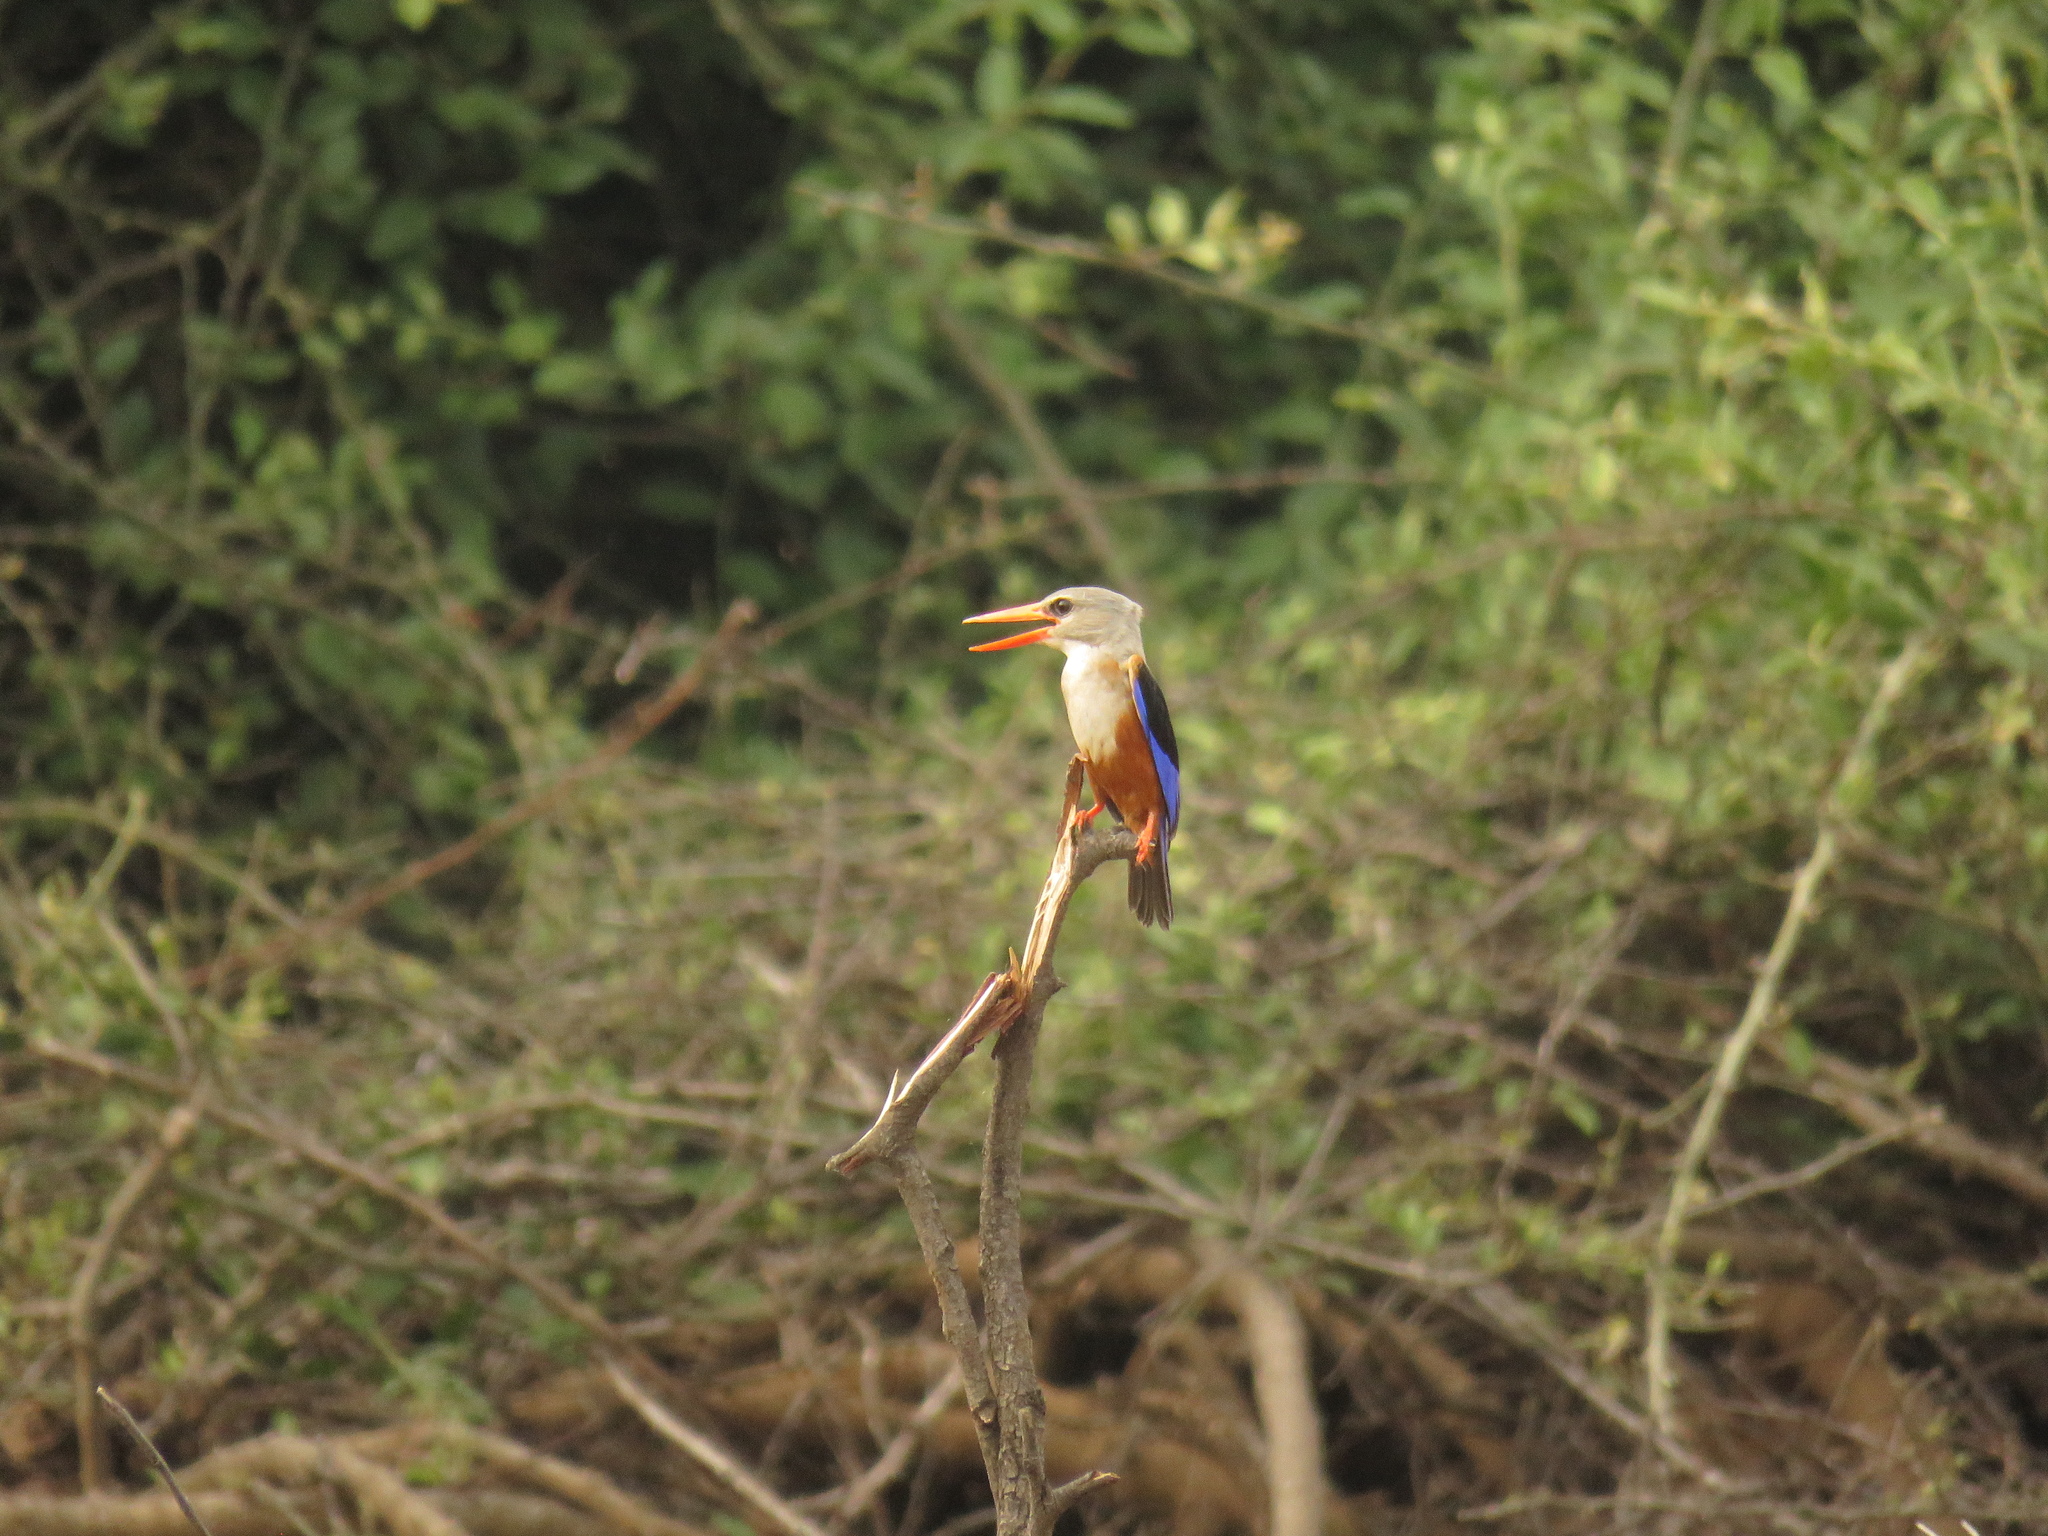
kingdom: Animalia
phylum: Chordata
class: Aves
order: Coraciiformes
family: Alcedinidae
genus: Halcyon
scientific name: Halcyon leucocephala
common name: Grey-headed kingfisher
